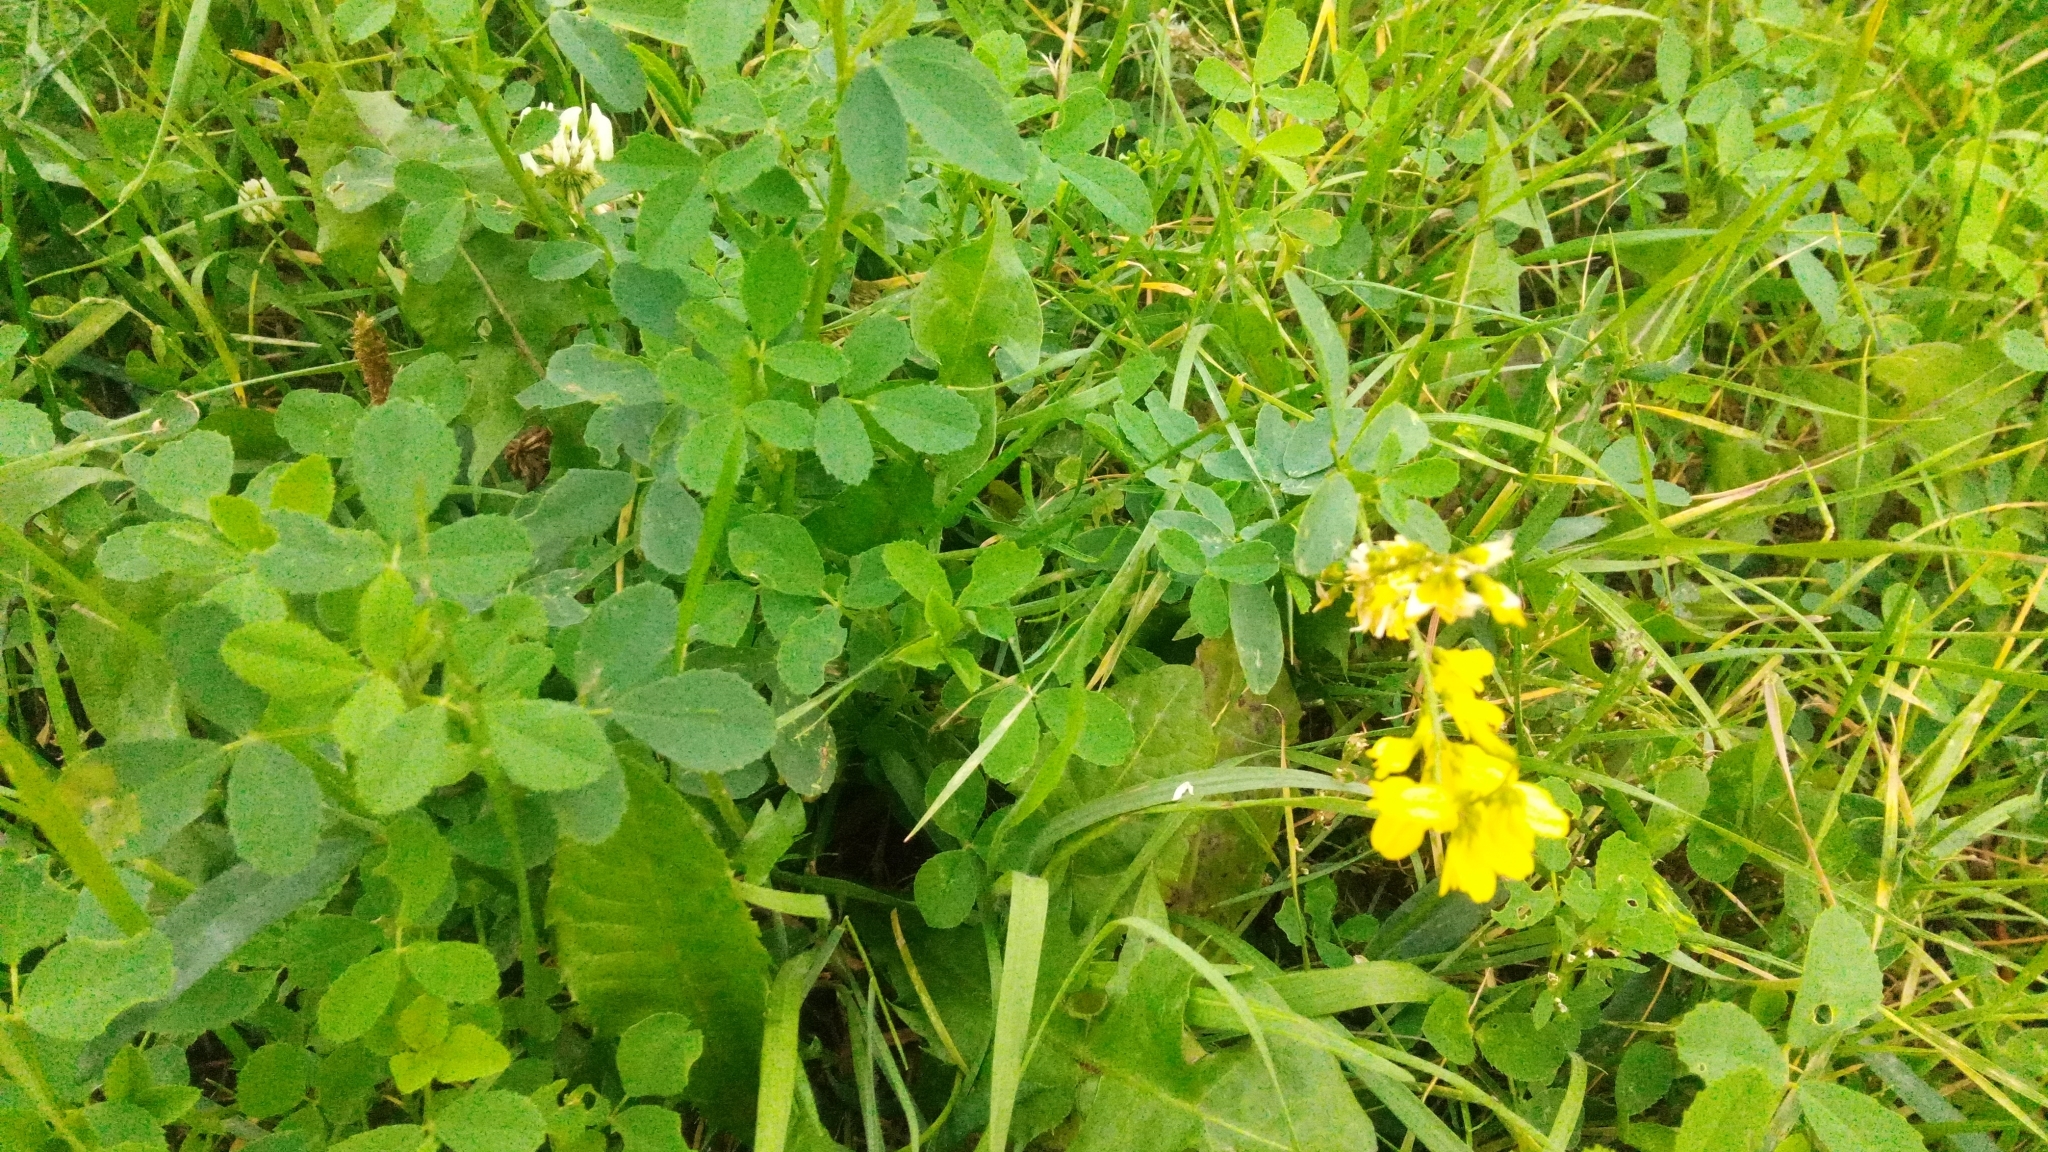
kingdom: Plantae
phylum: Tracheophyta
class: Magnoliopsida
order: Fabales
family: Fabaceae
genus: Melilotus
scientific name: Melilotus officinalis
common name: Sweetclover
